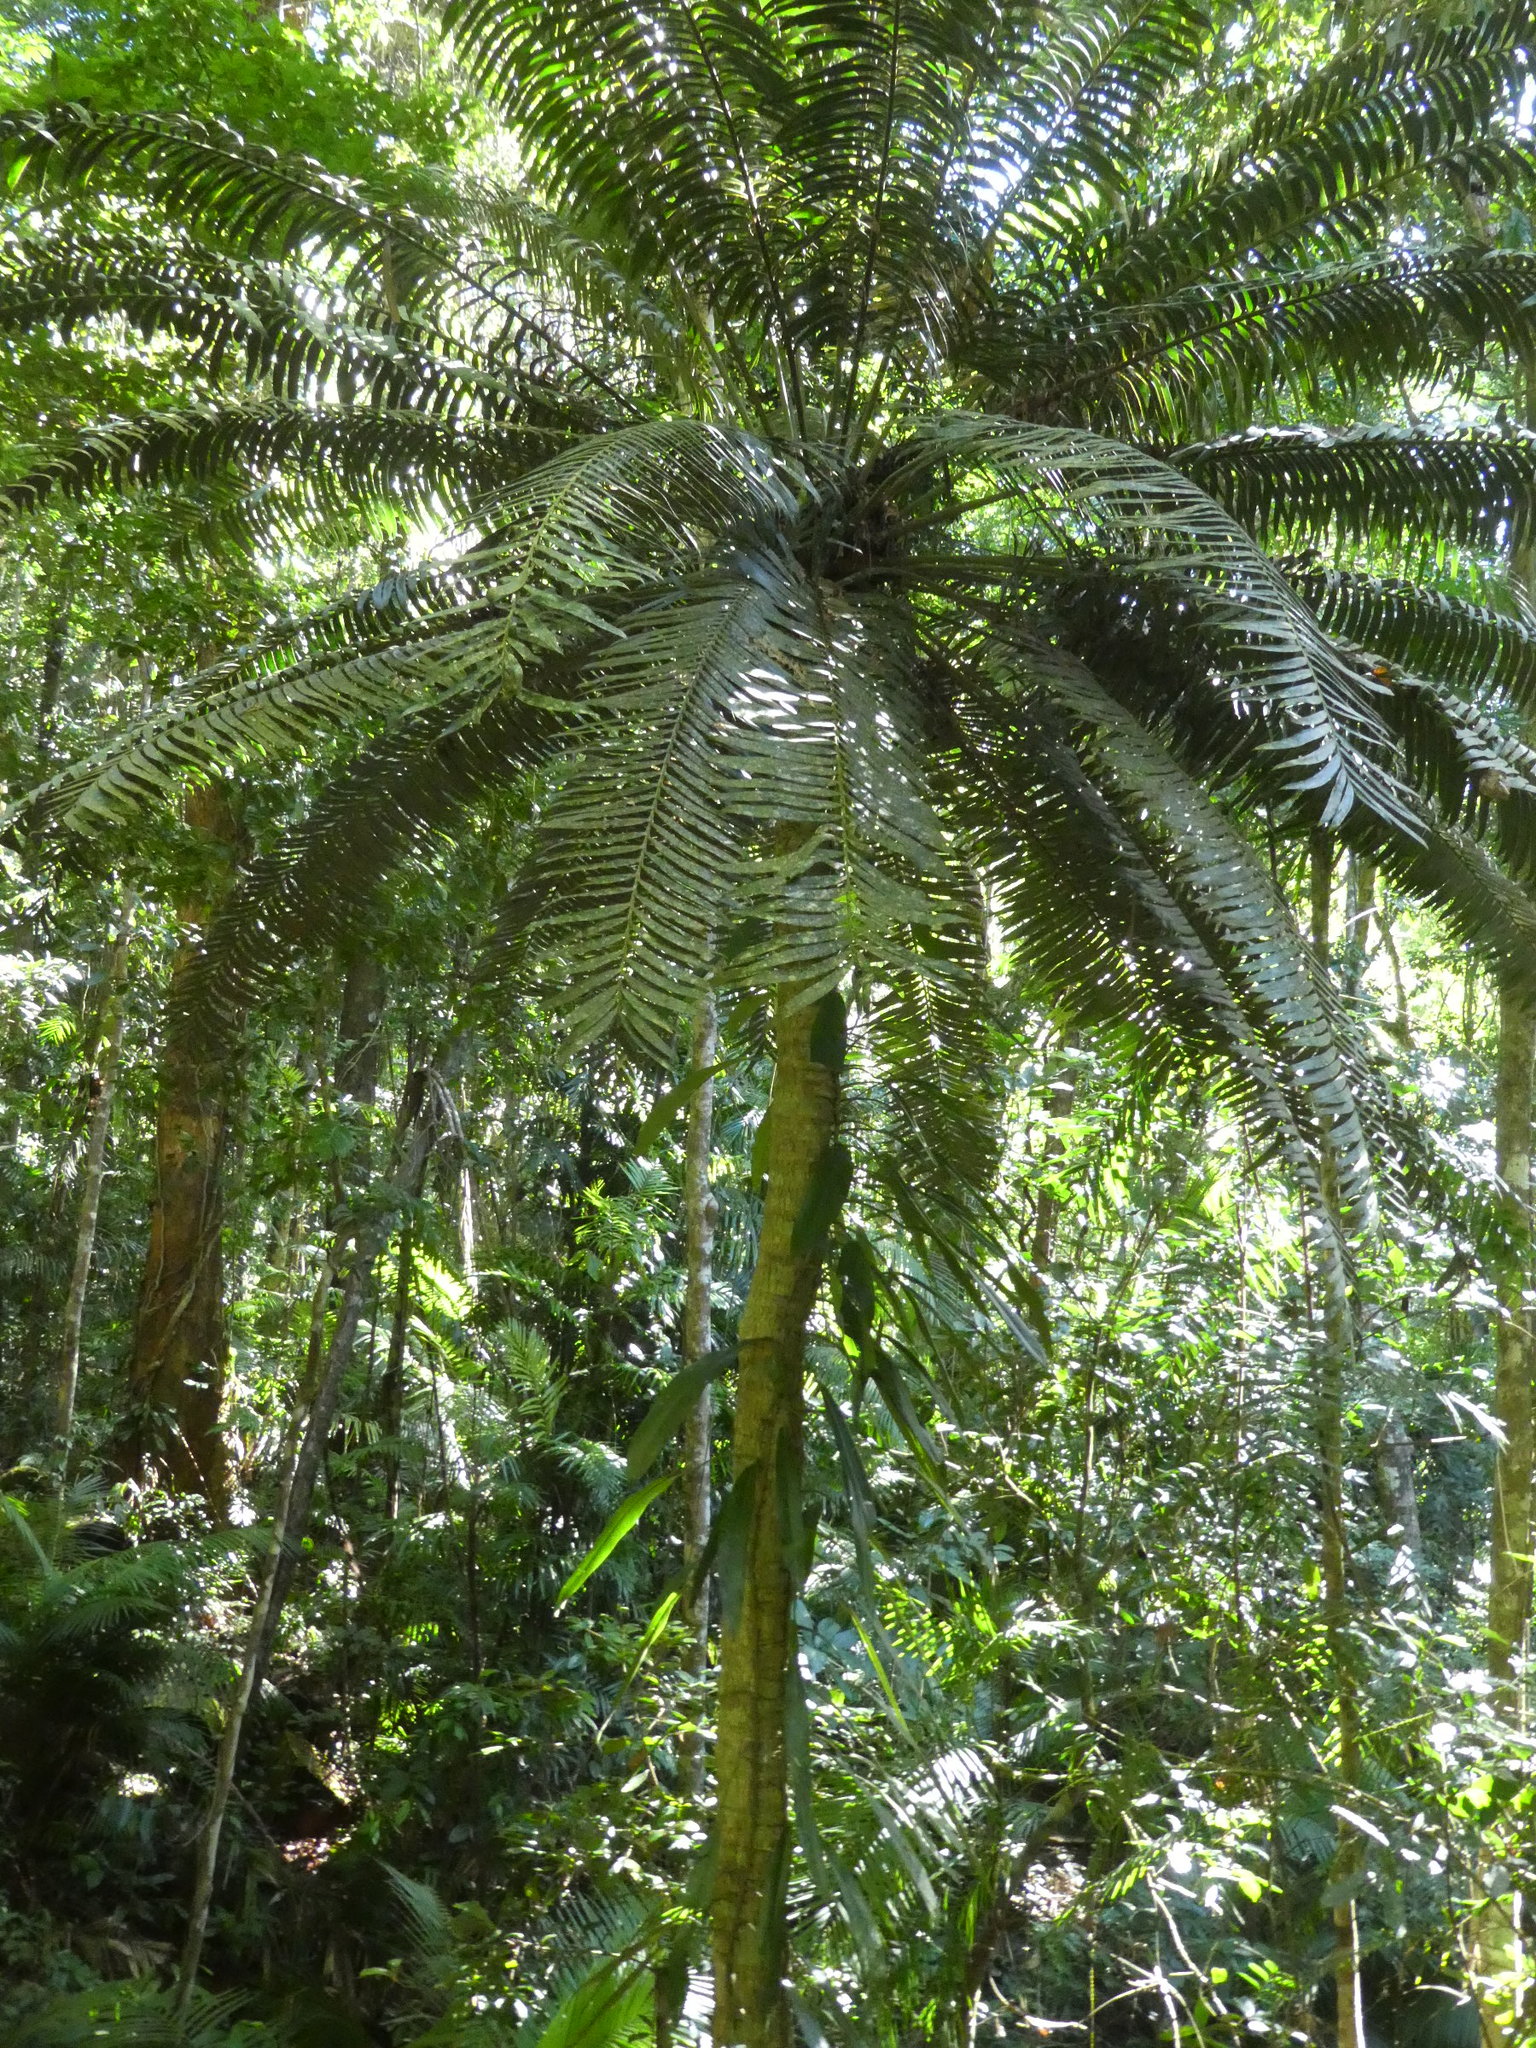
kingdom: Plantae
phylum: Tracheophyta
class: Cycadopsida
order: Cycadales
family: Zamiaceae
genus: Lepidozamia
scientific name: Lepidozamia hopei
